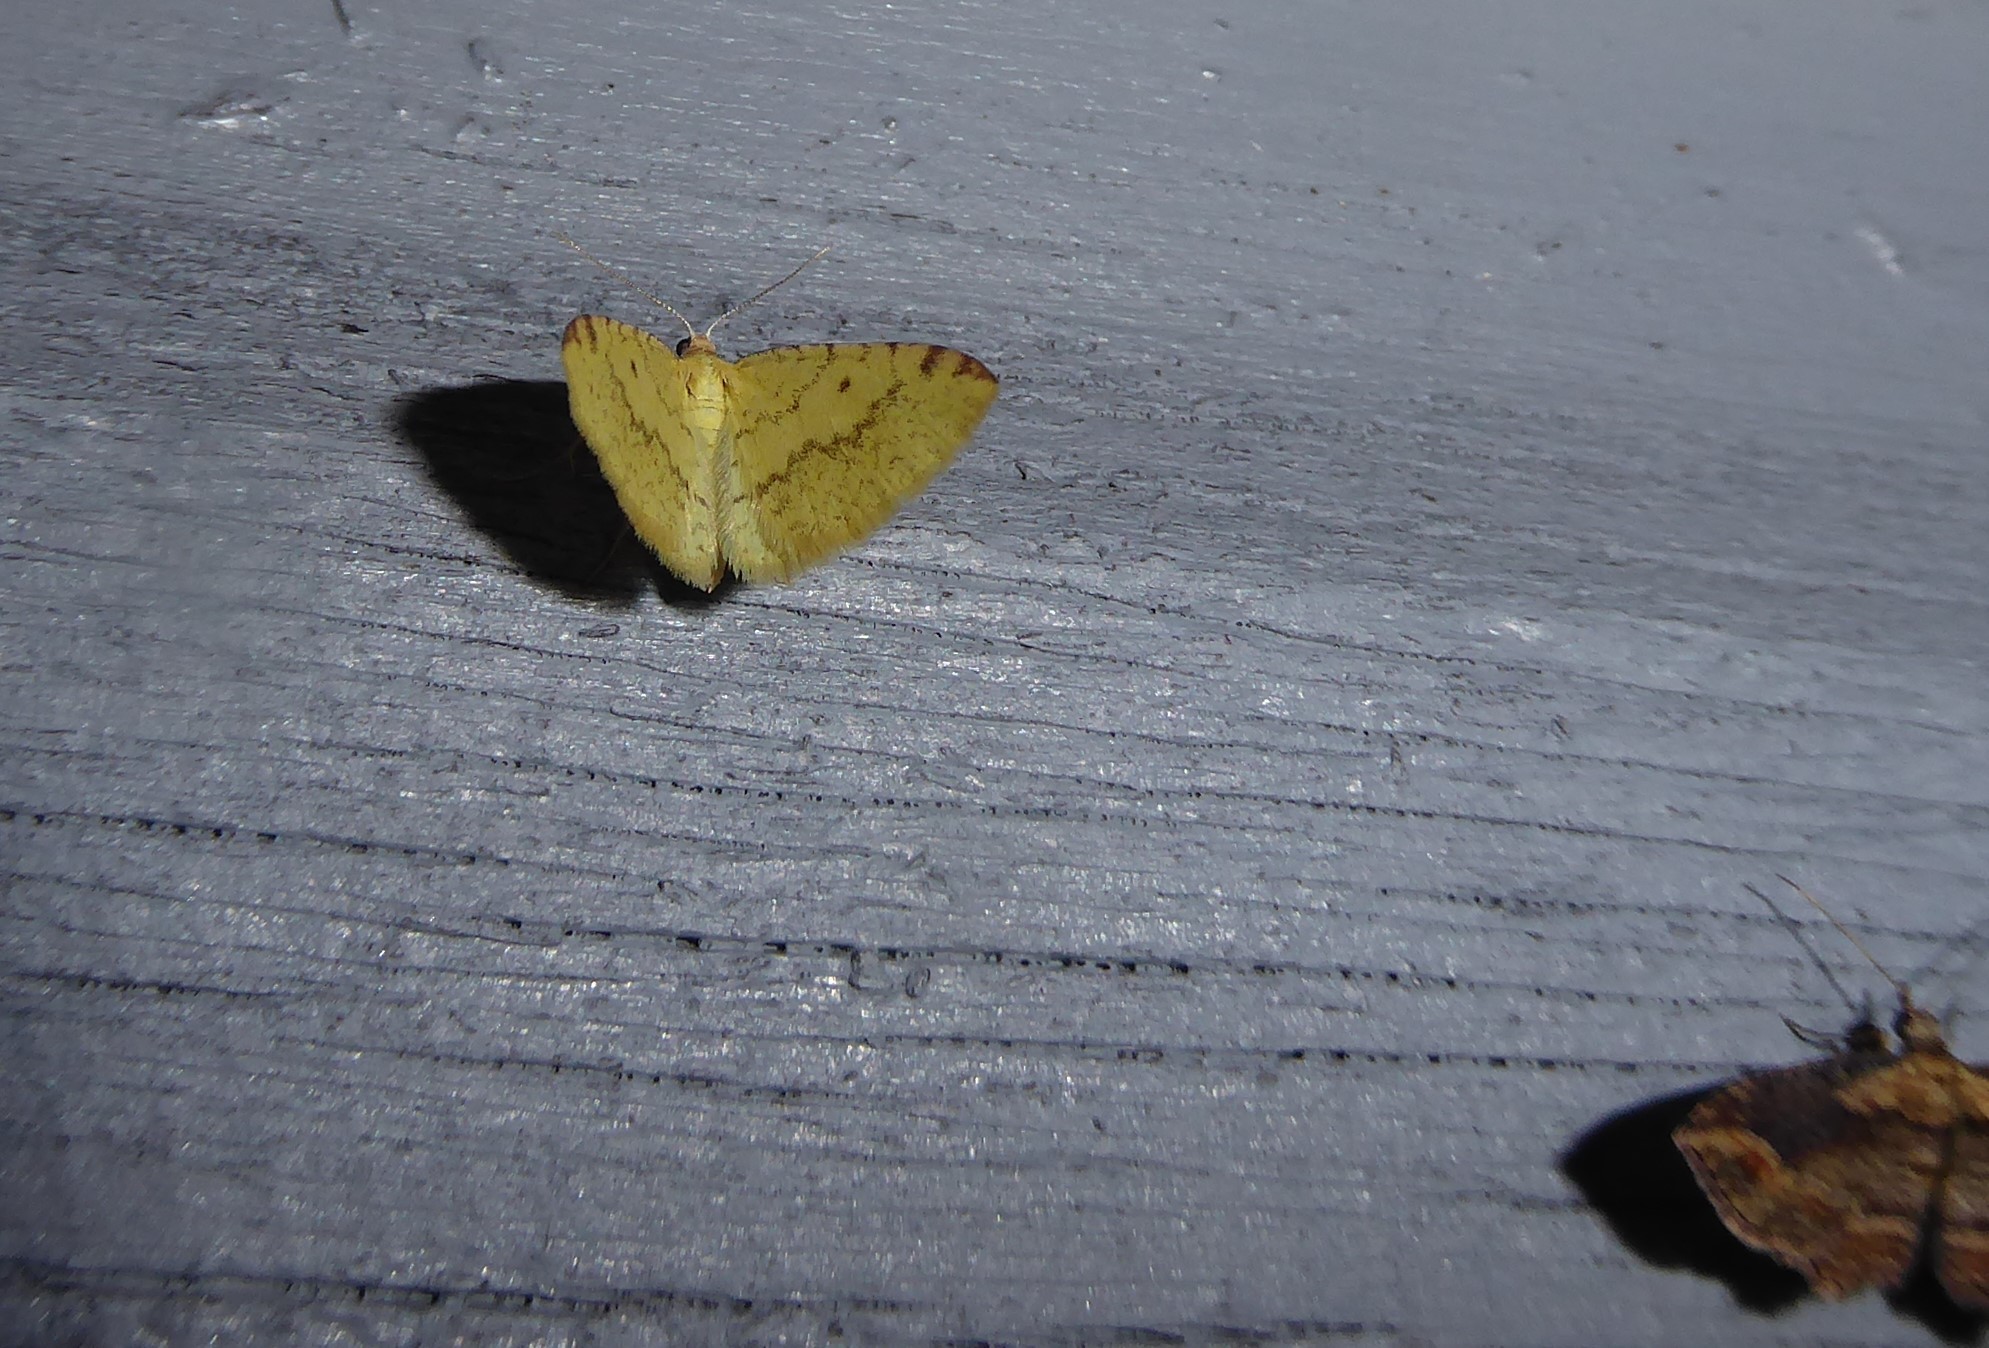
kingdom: Animalia
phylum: Arthropoda
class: Insecta
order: Lepidoptera
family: Geometridae
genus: Epiphryne
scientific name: Epiphryne undosata
